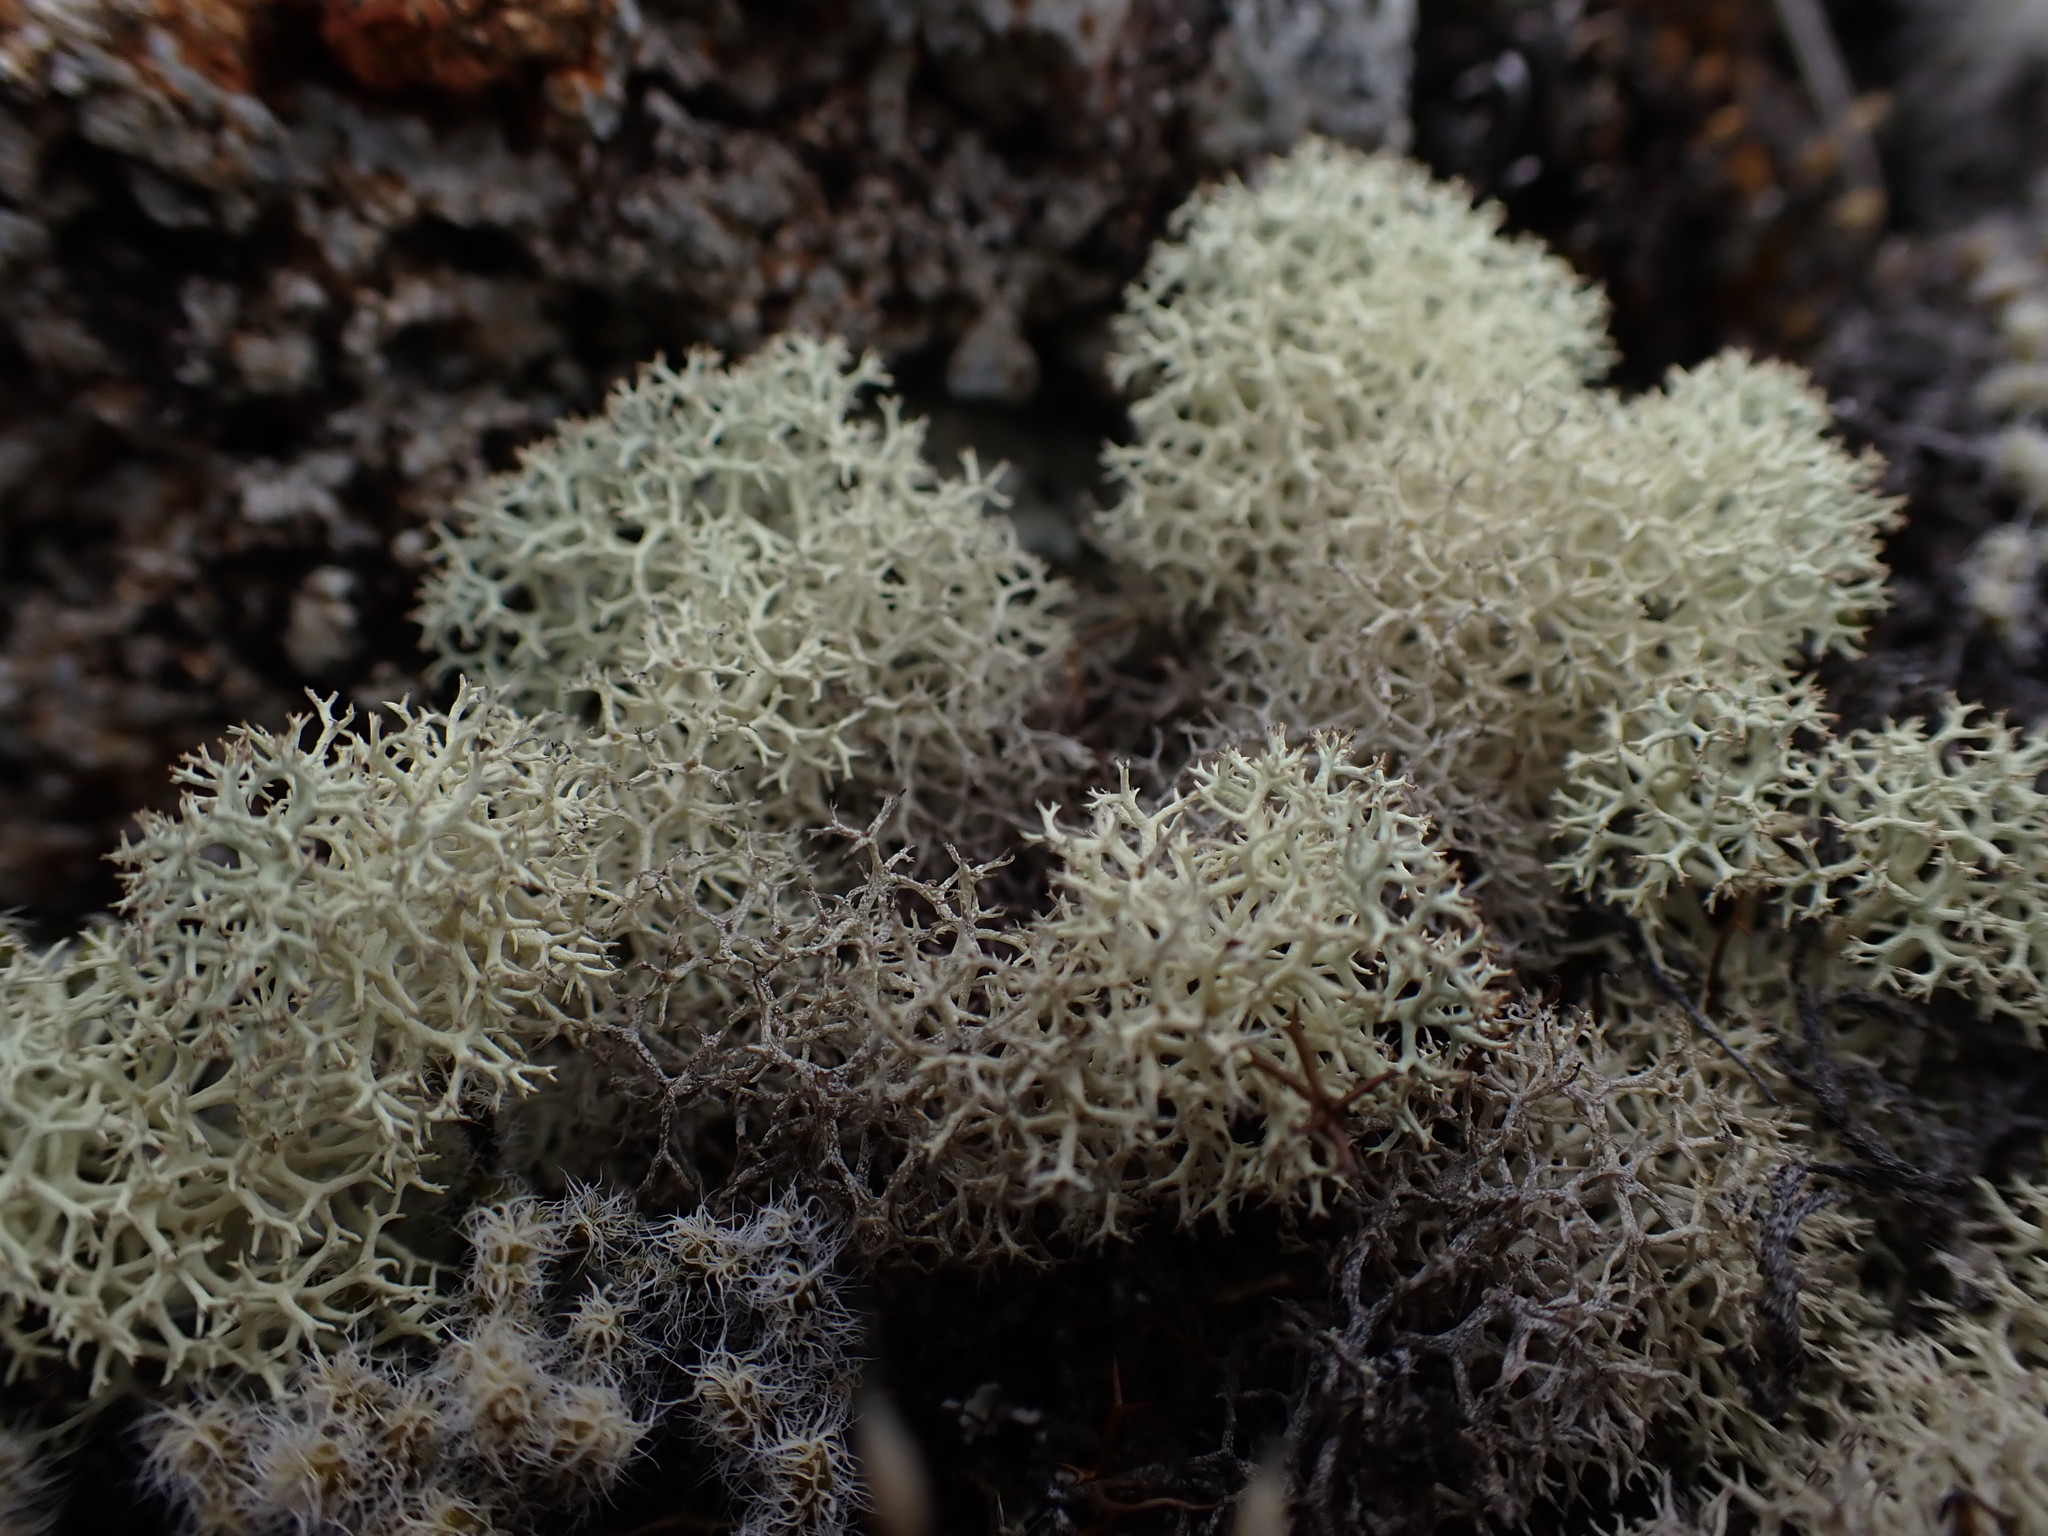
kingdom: Fungi
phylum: Ascomycota
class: Lecanoromycetes
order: Lecanorales
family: Cladoniaceae
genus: Cladonia
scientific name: Cladonia confusa
